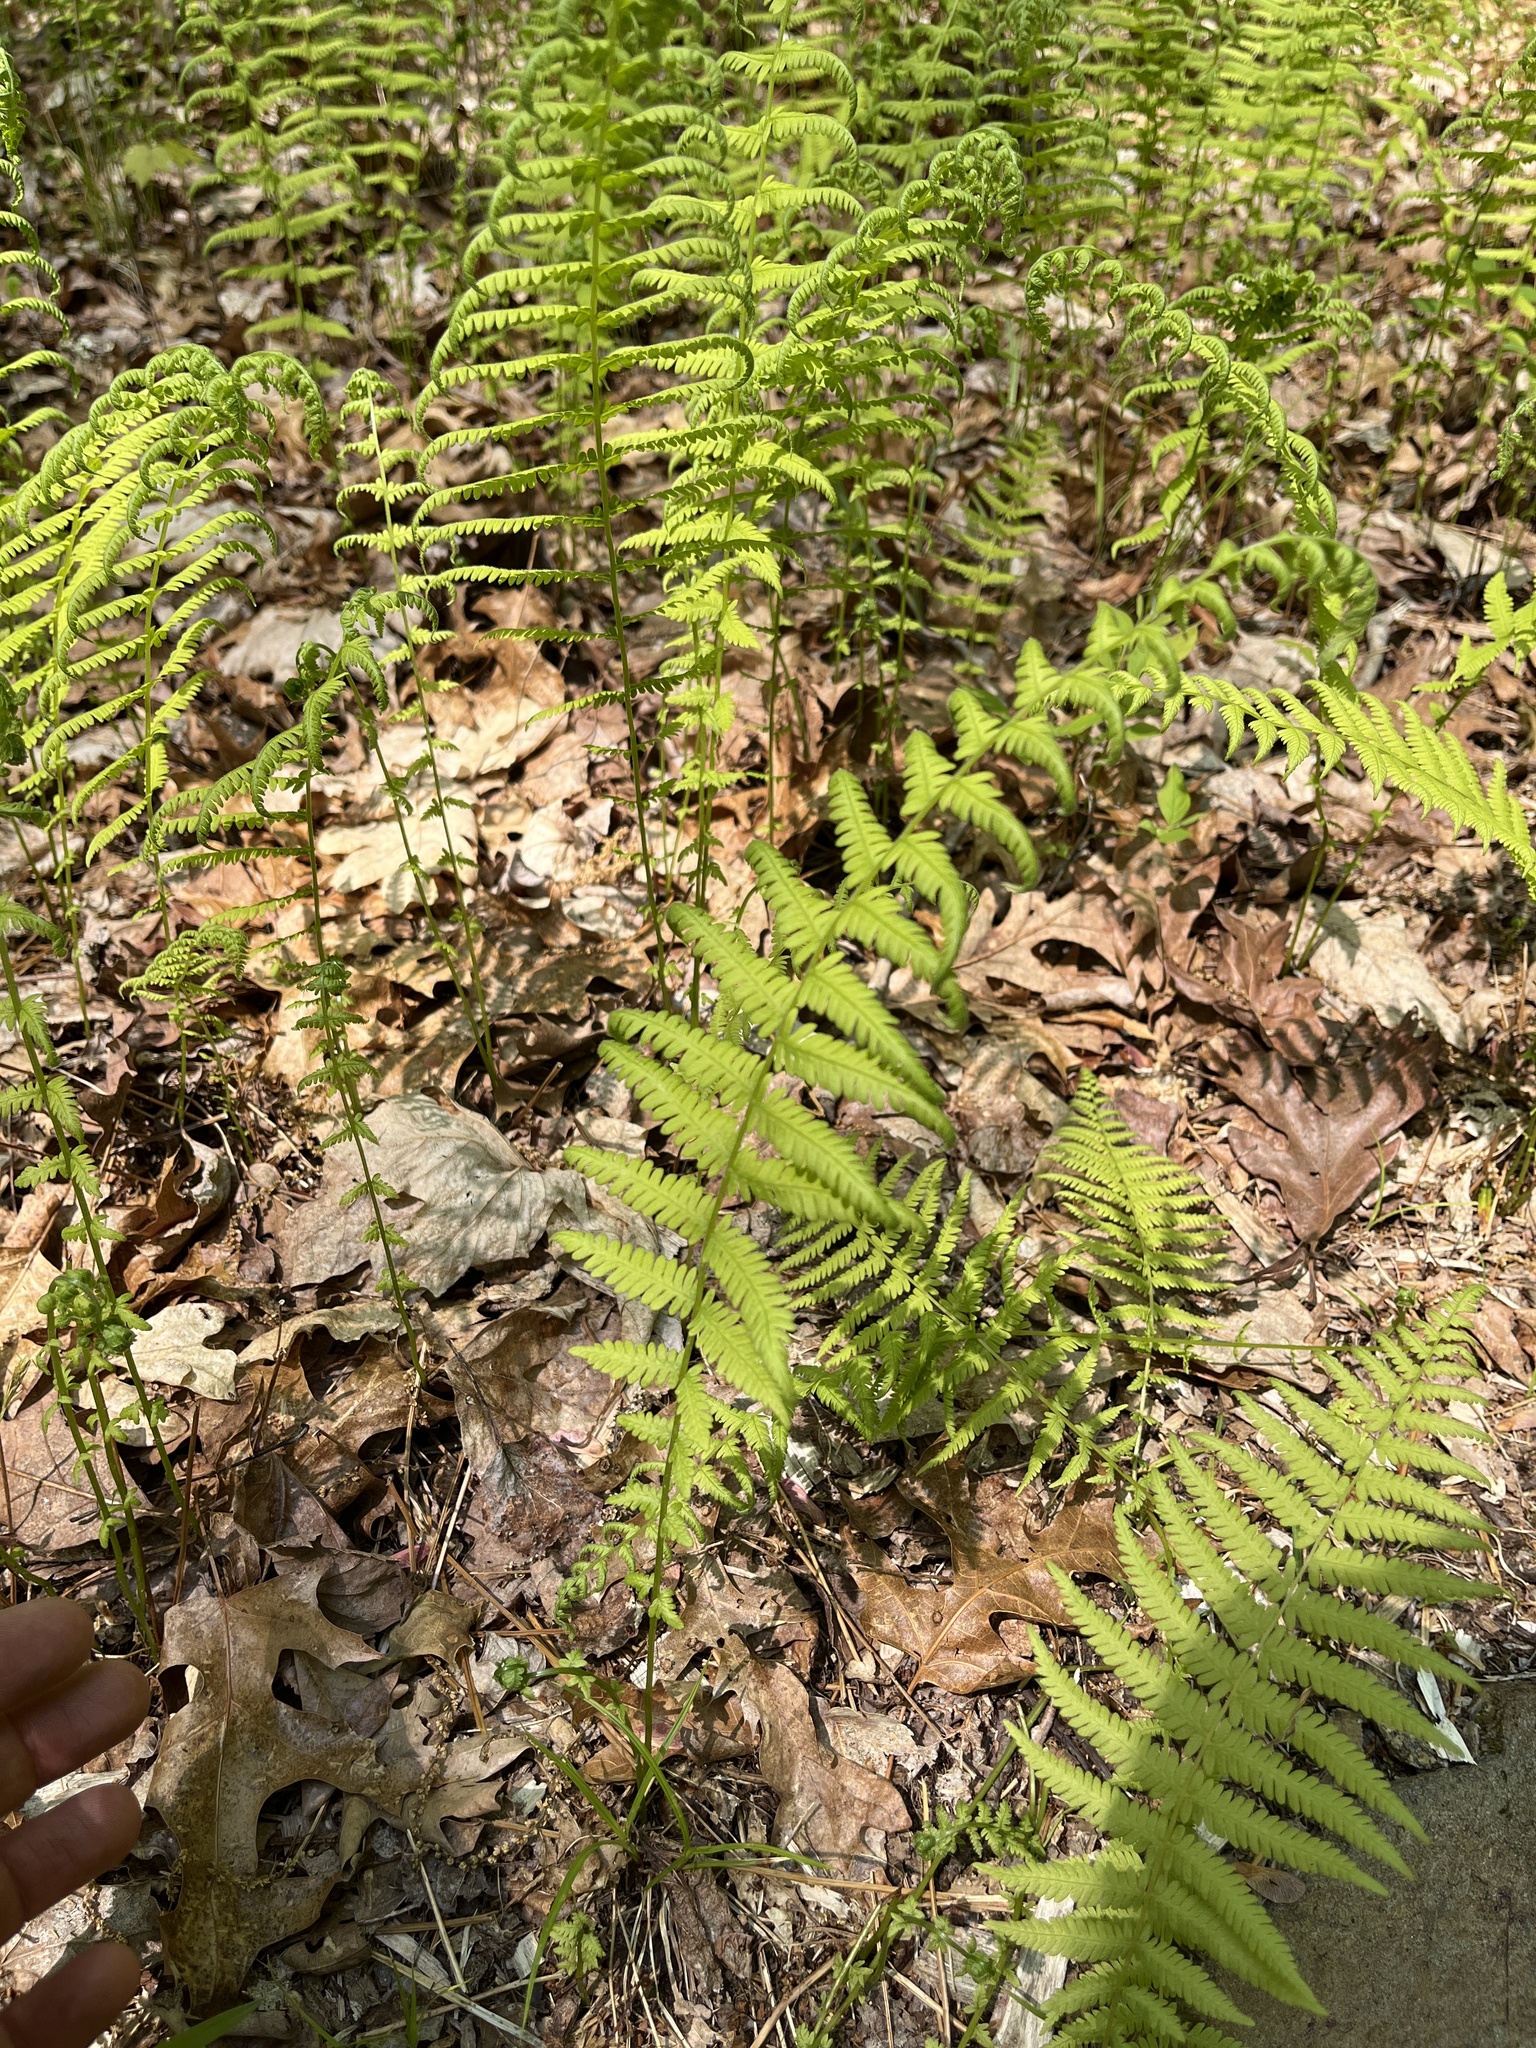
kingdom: Plantae
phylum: Tracheophyta
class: Polypodiopsida
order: Polypodiales
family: Thelypteridaceae
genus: Amauropelta
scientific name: Amauropelta noveboracensis
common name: New york fern
